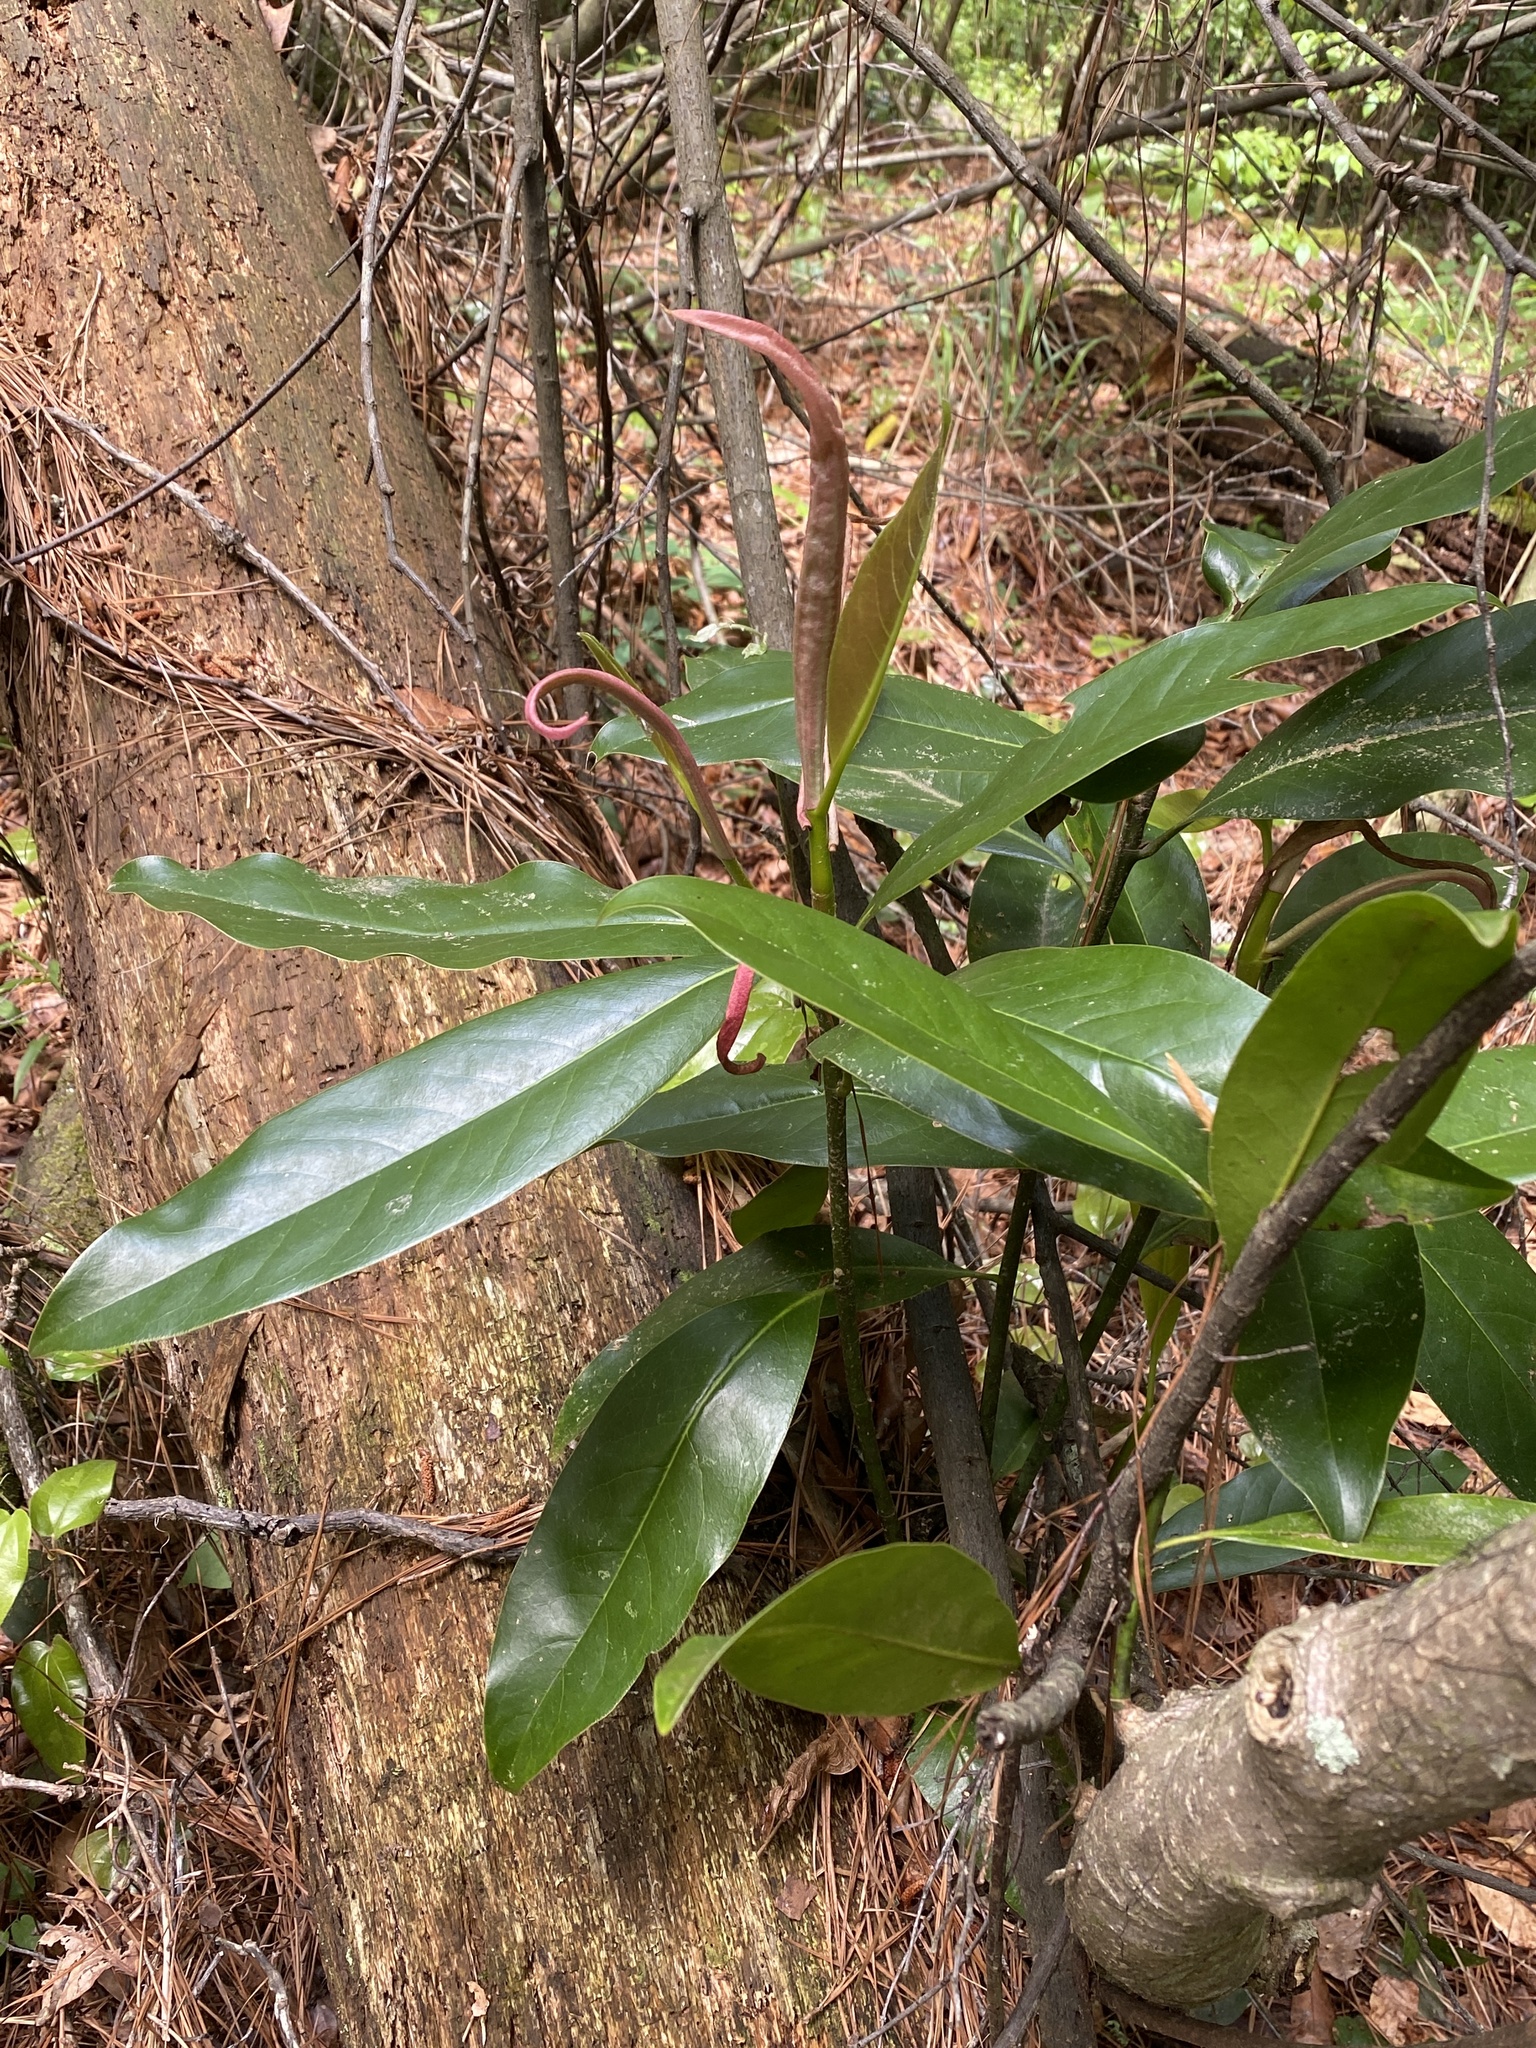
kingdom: Plantae
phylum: Tracheophyta
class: Magnoliopsida
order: Magnoliales
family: Magnoliaceae
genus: Magnolia
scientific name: Magnolia grandiflora
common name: Southern magnolia
